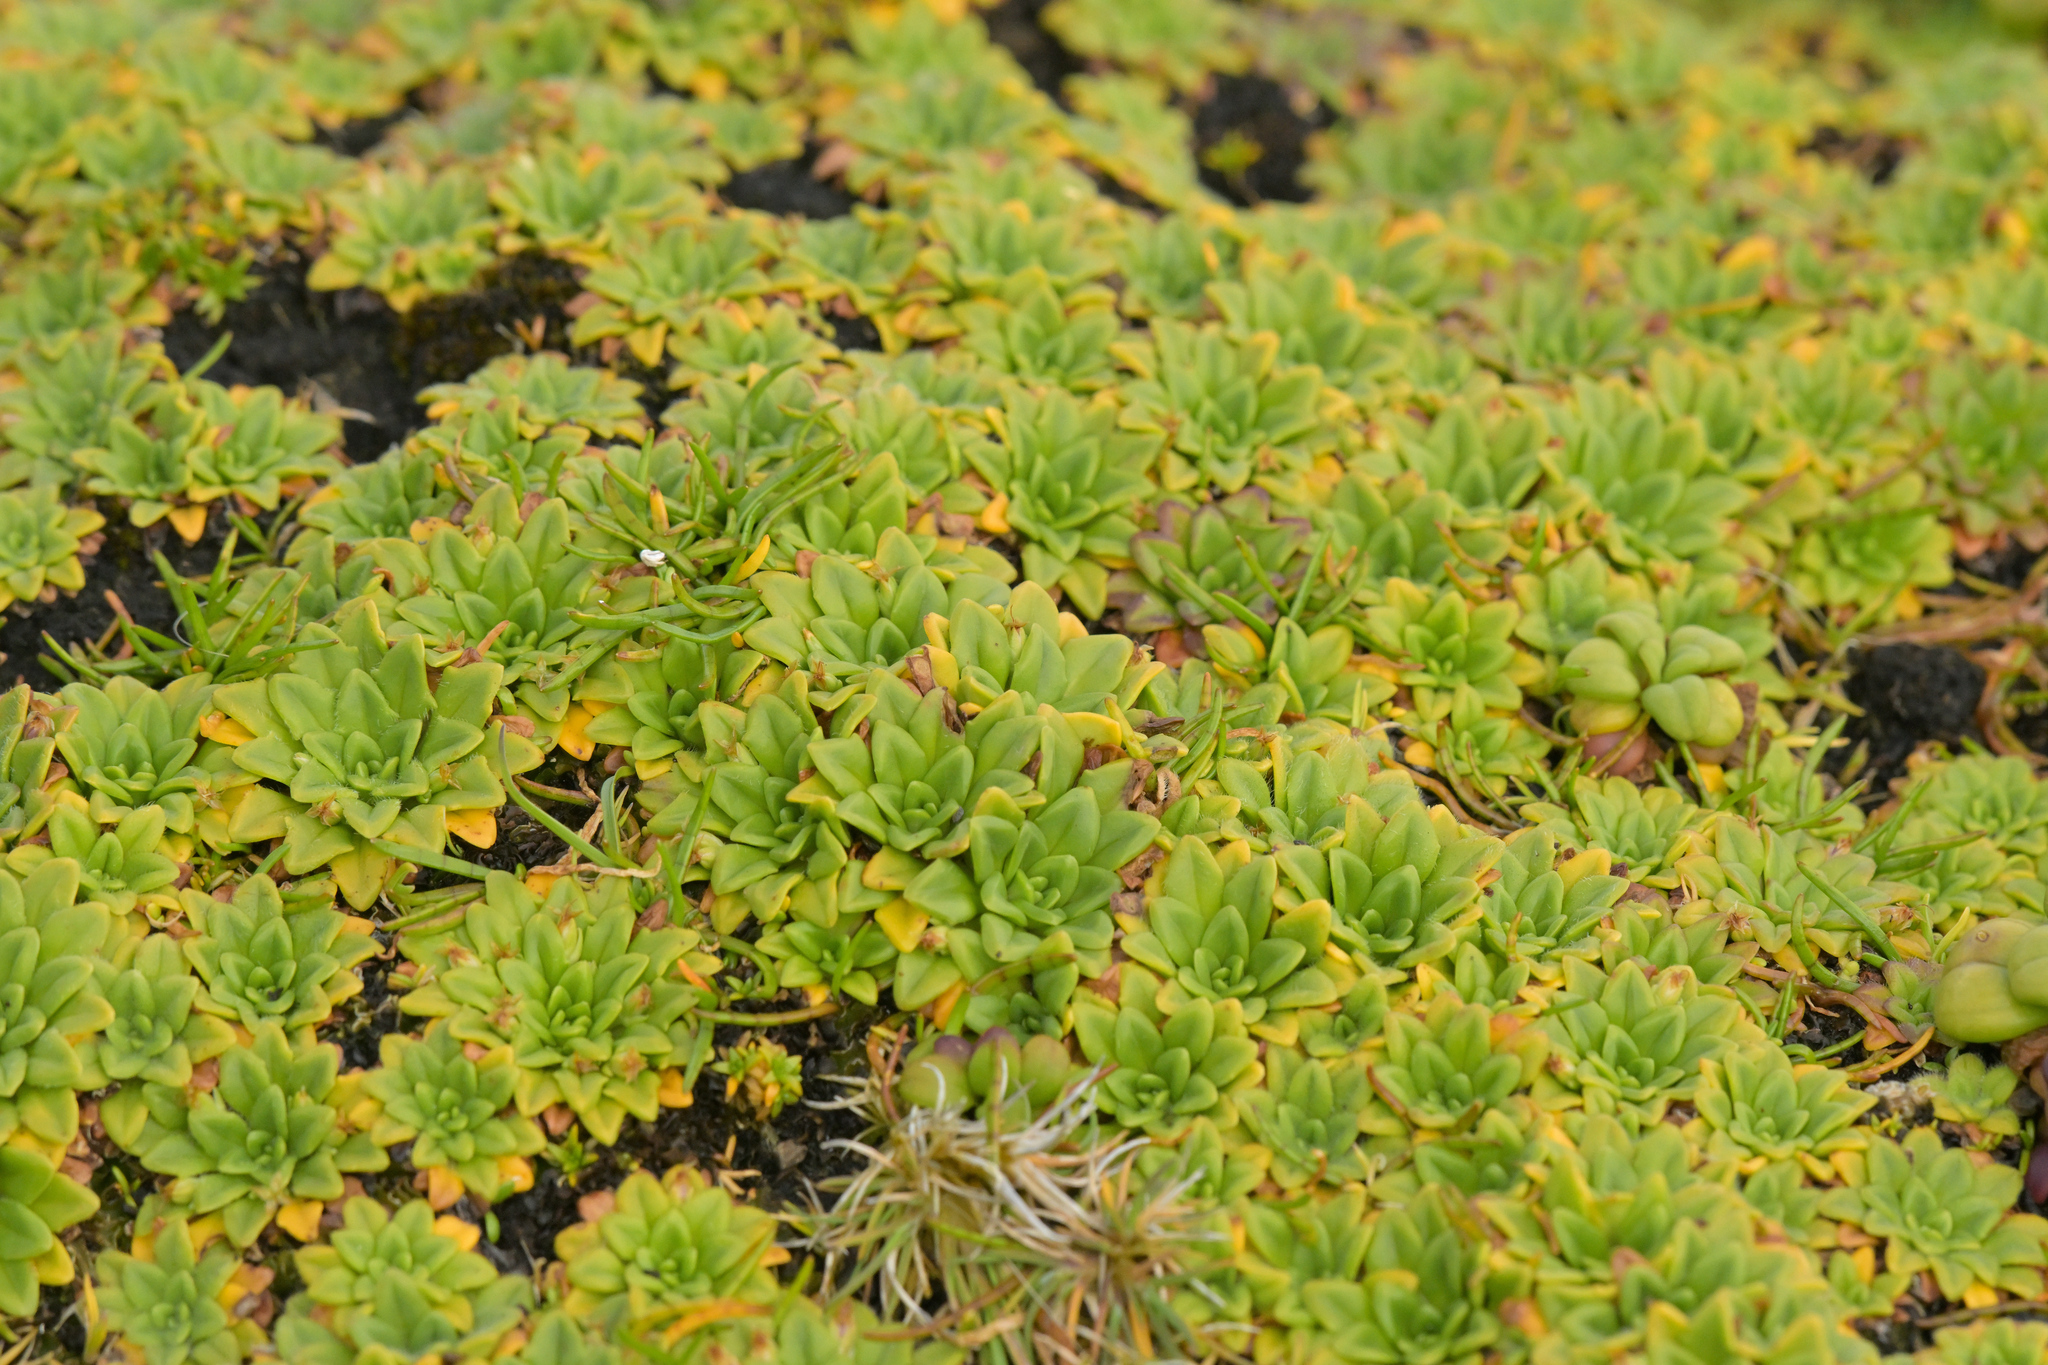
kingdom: Plantae
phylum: Tracheophyta
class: Magnoliopsida
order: Lamiales
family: Plantaginaceae
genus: Plantago
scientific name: Plantago brownii
